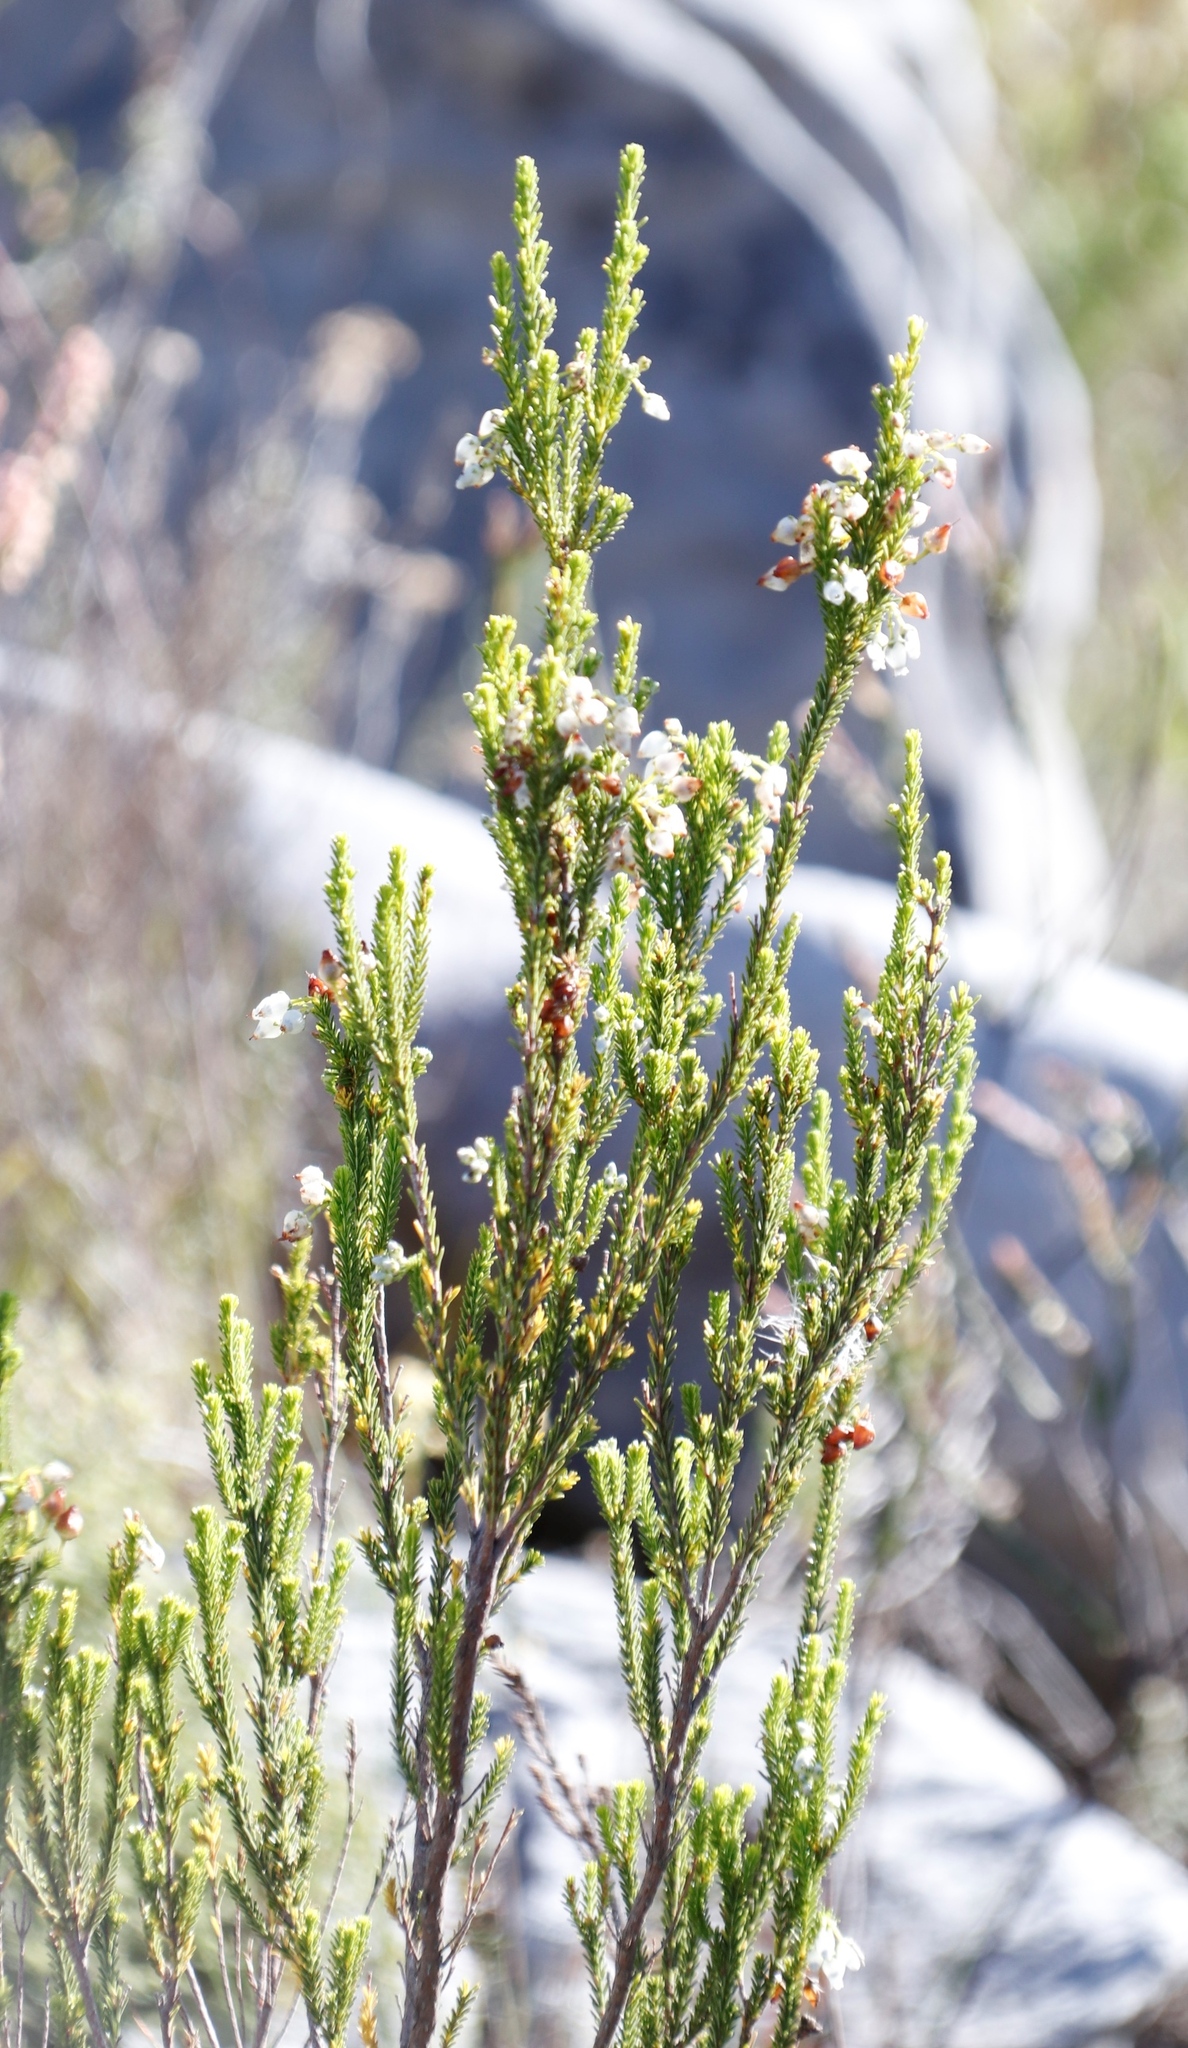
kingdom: Plantae
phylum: Tracheophyta
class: Magnoliopsida
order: Ericales
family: Ericaceae
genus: Erica
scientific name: Erica physodes
